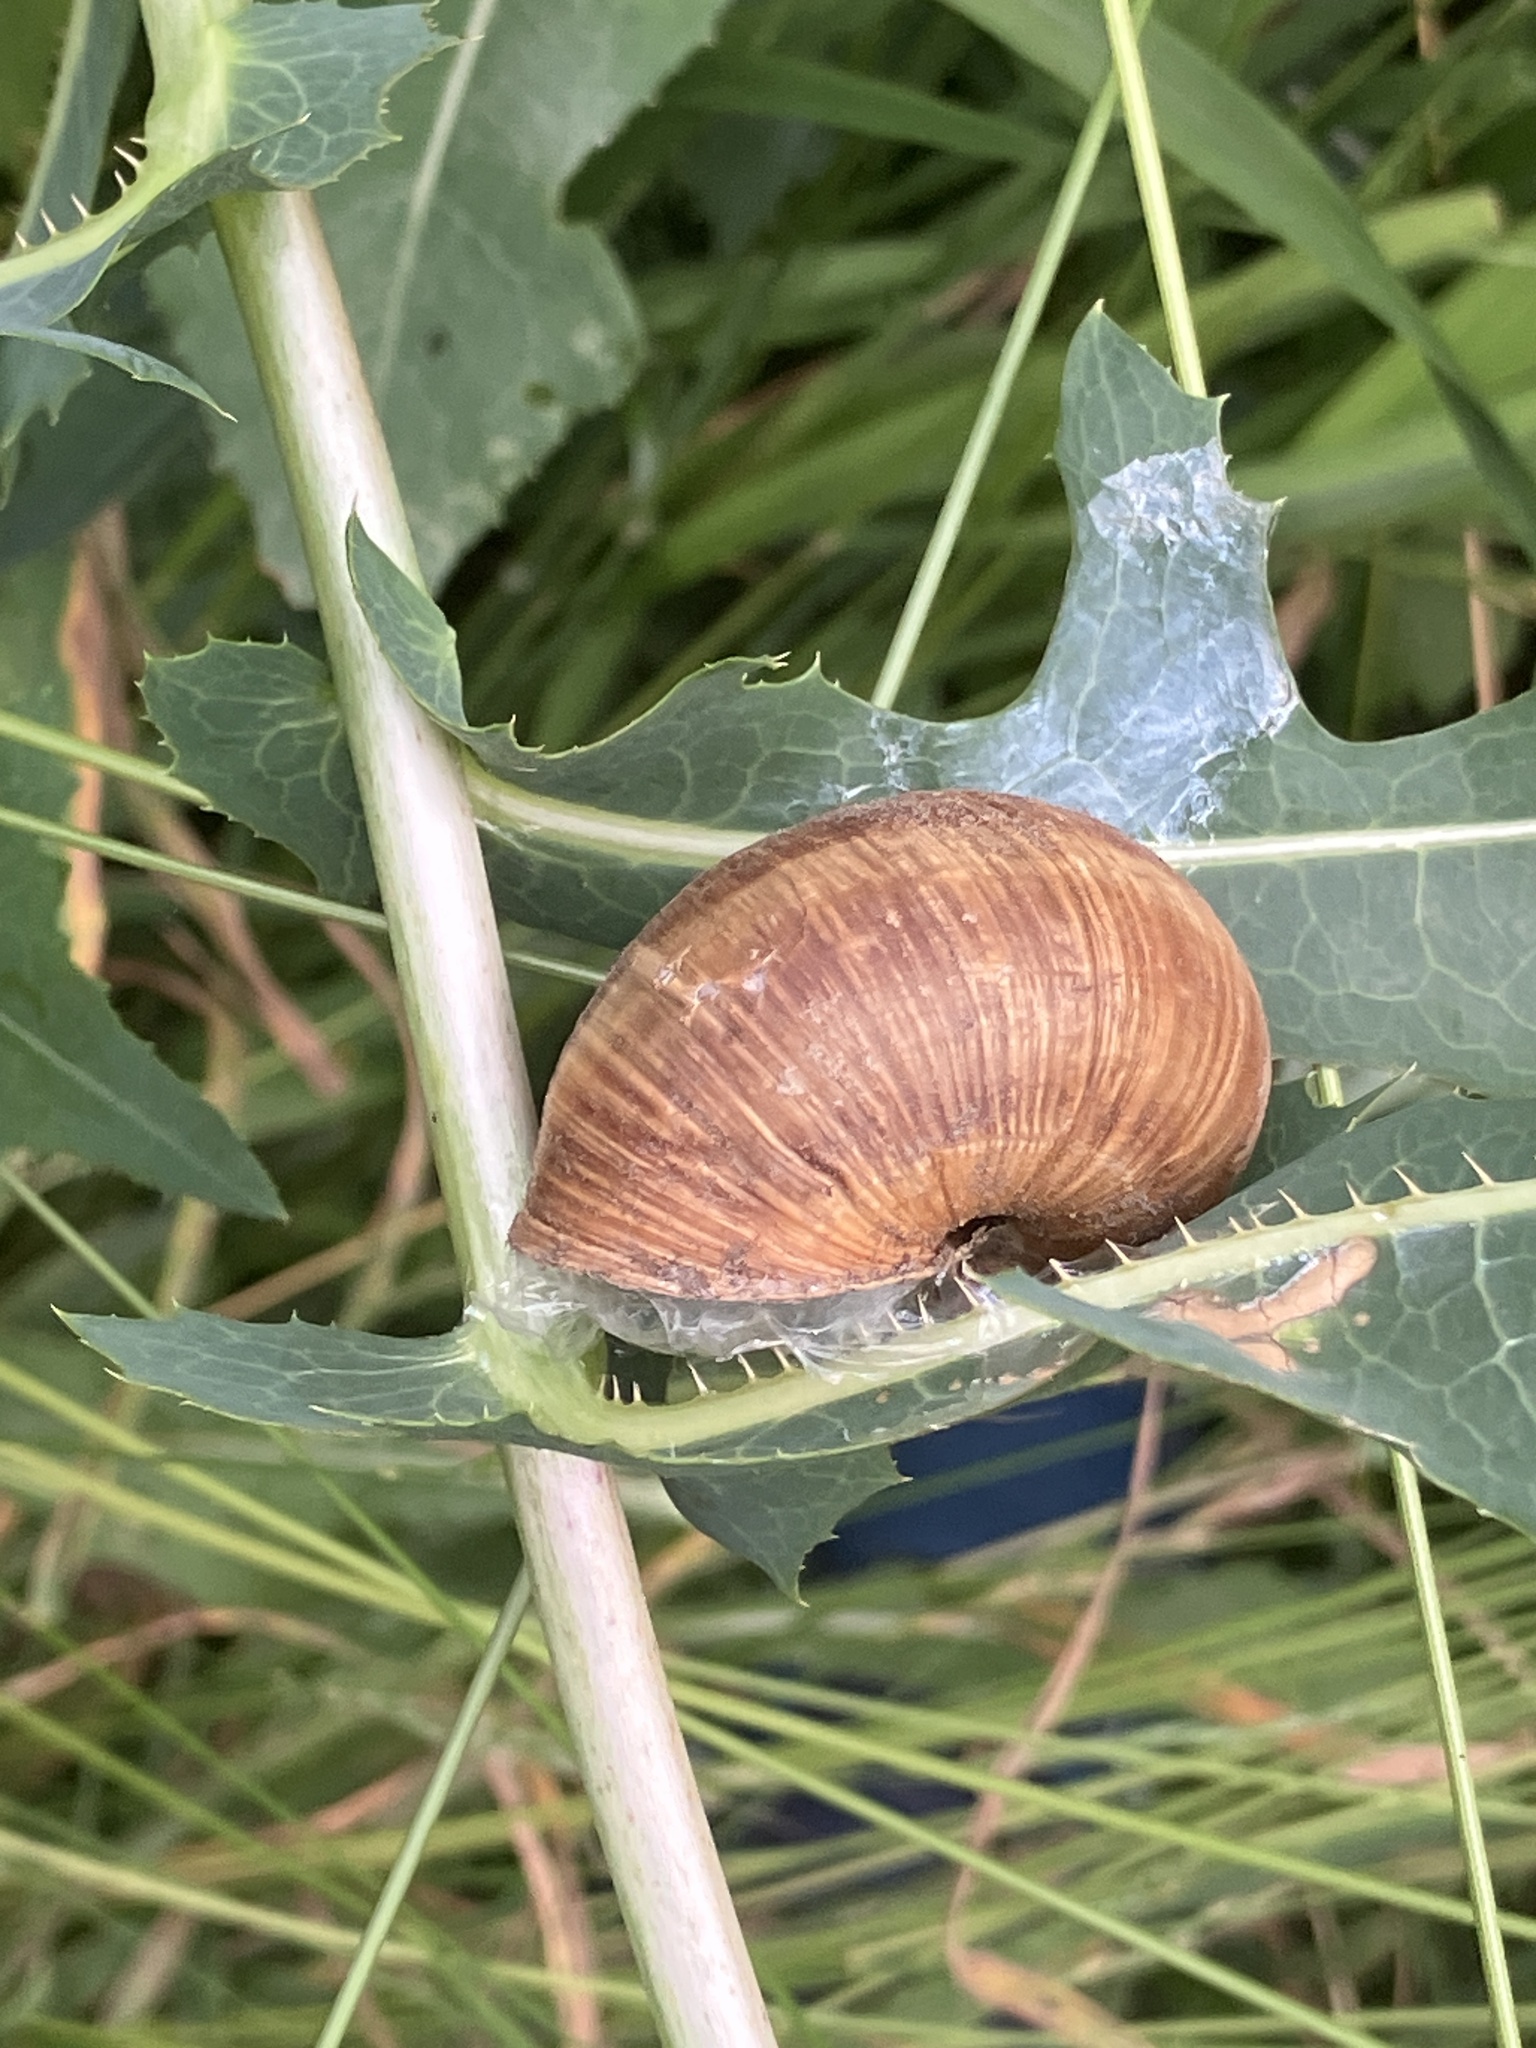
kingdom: Animalia
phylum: Mollusca
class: Gastropoda
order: Stylommatophora
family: Helicidae
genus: Helix
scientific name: Helix pomatia
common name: Roman snail
